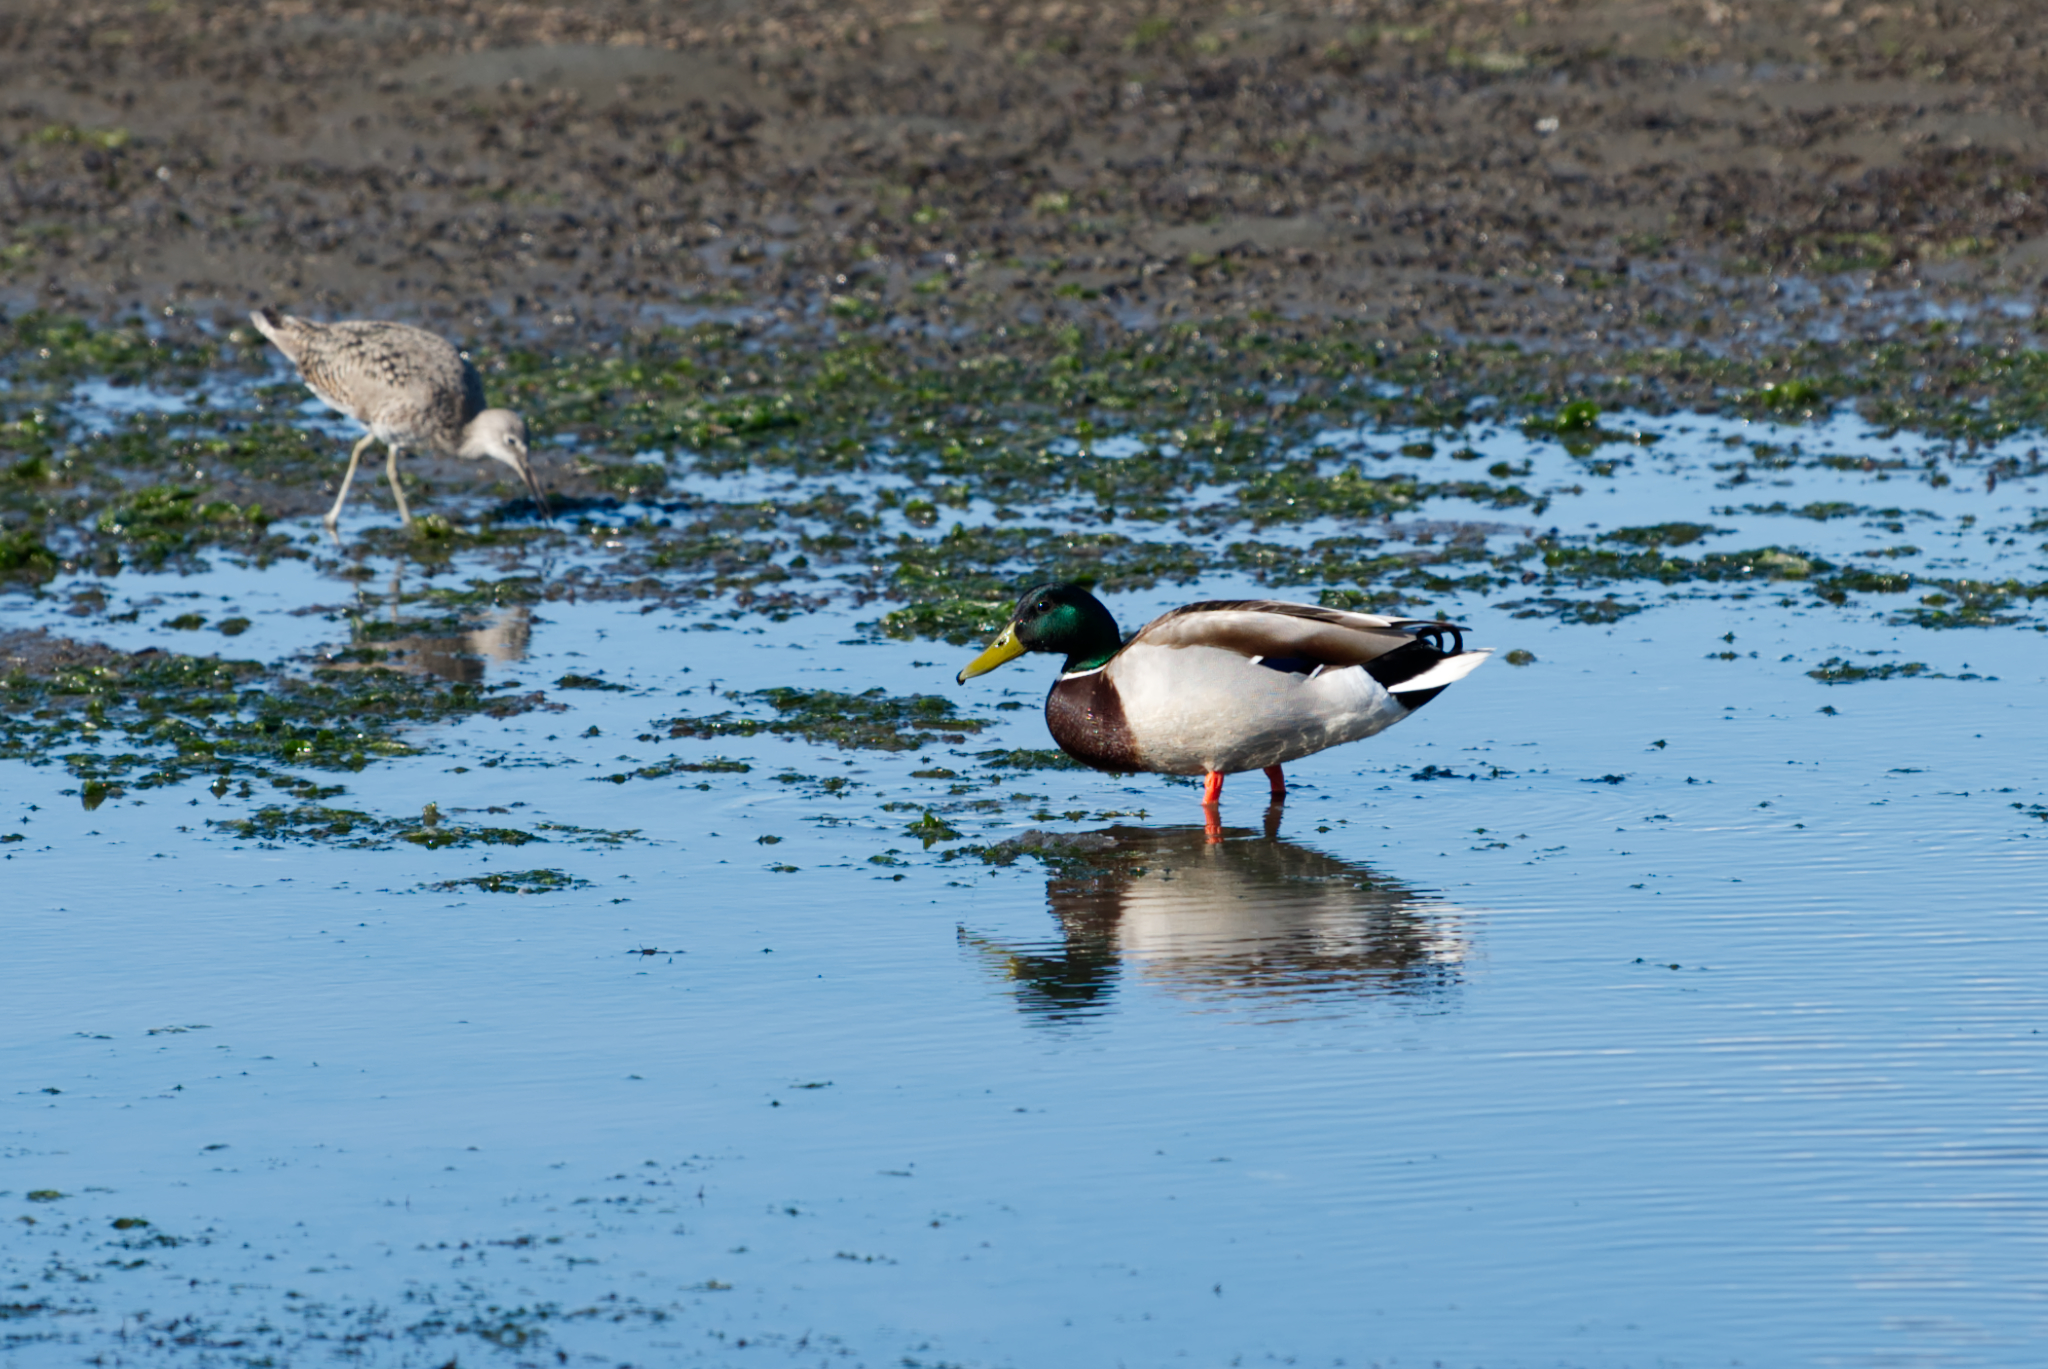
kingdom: Animalia
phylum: Chordata
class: Aves
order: Anseriformes
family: Anatidae
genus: Anas
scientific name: Anas platyrhynchos
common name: Mallard
